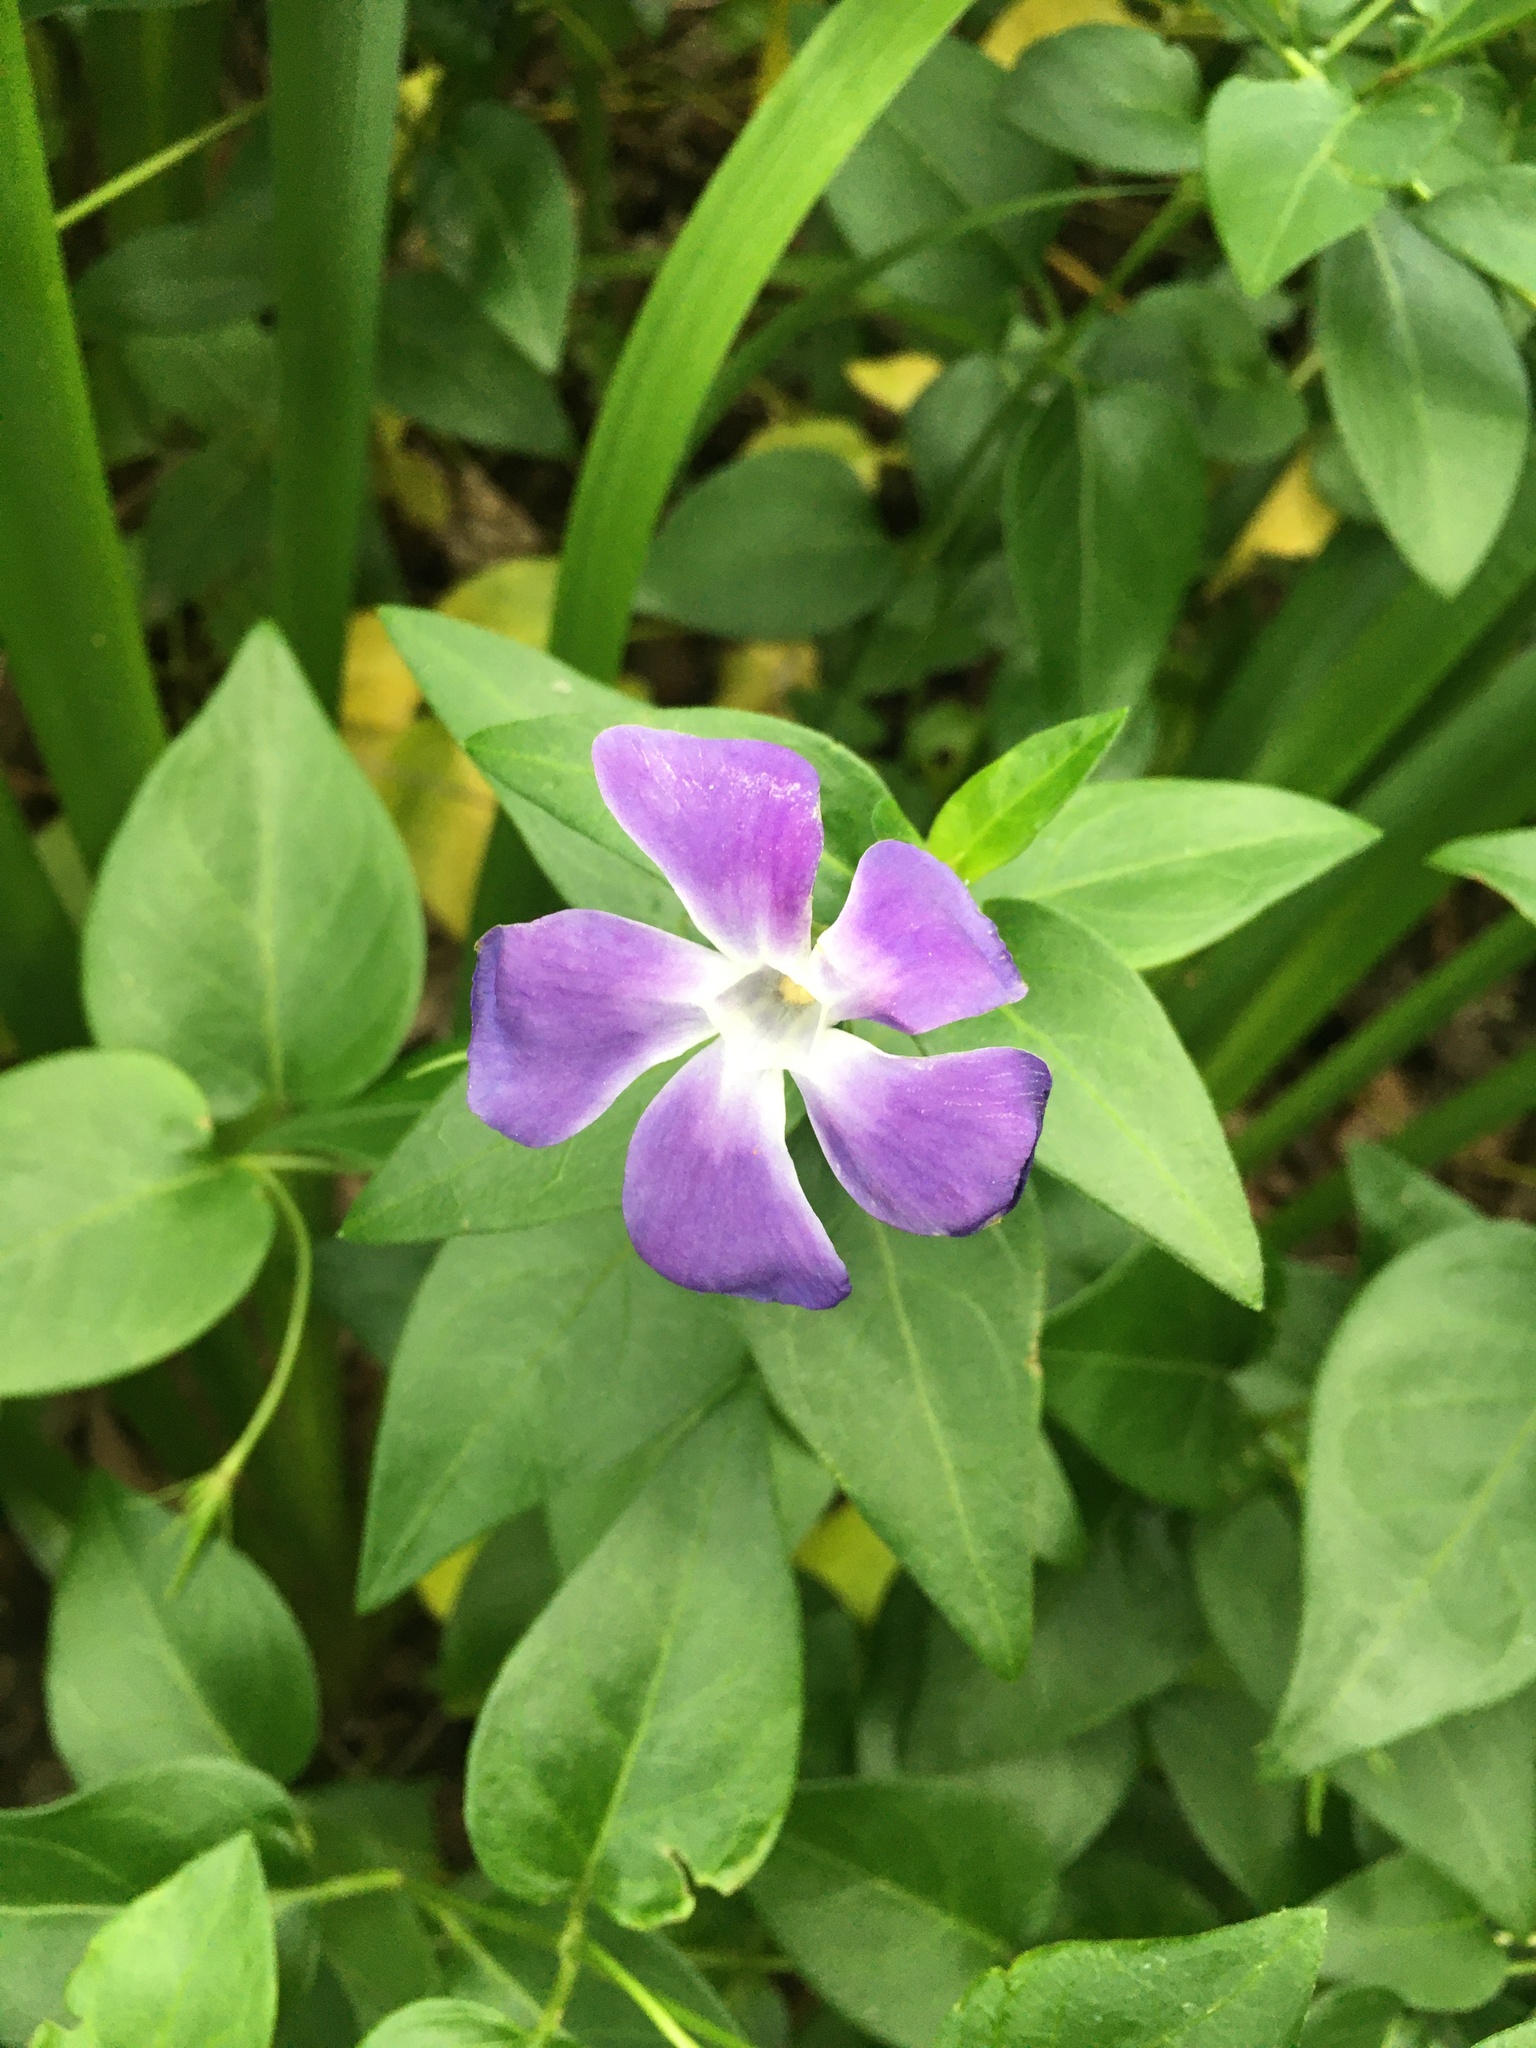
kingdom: Plantae
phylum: Tracheophyta
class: Magnoliopsida
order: Gentianales
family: Apocynaceae
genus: Vinca
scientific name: Vinca major
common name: Greater periwinkle
